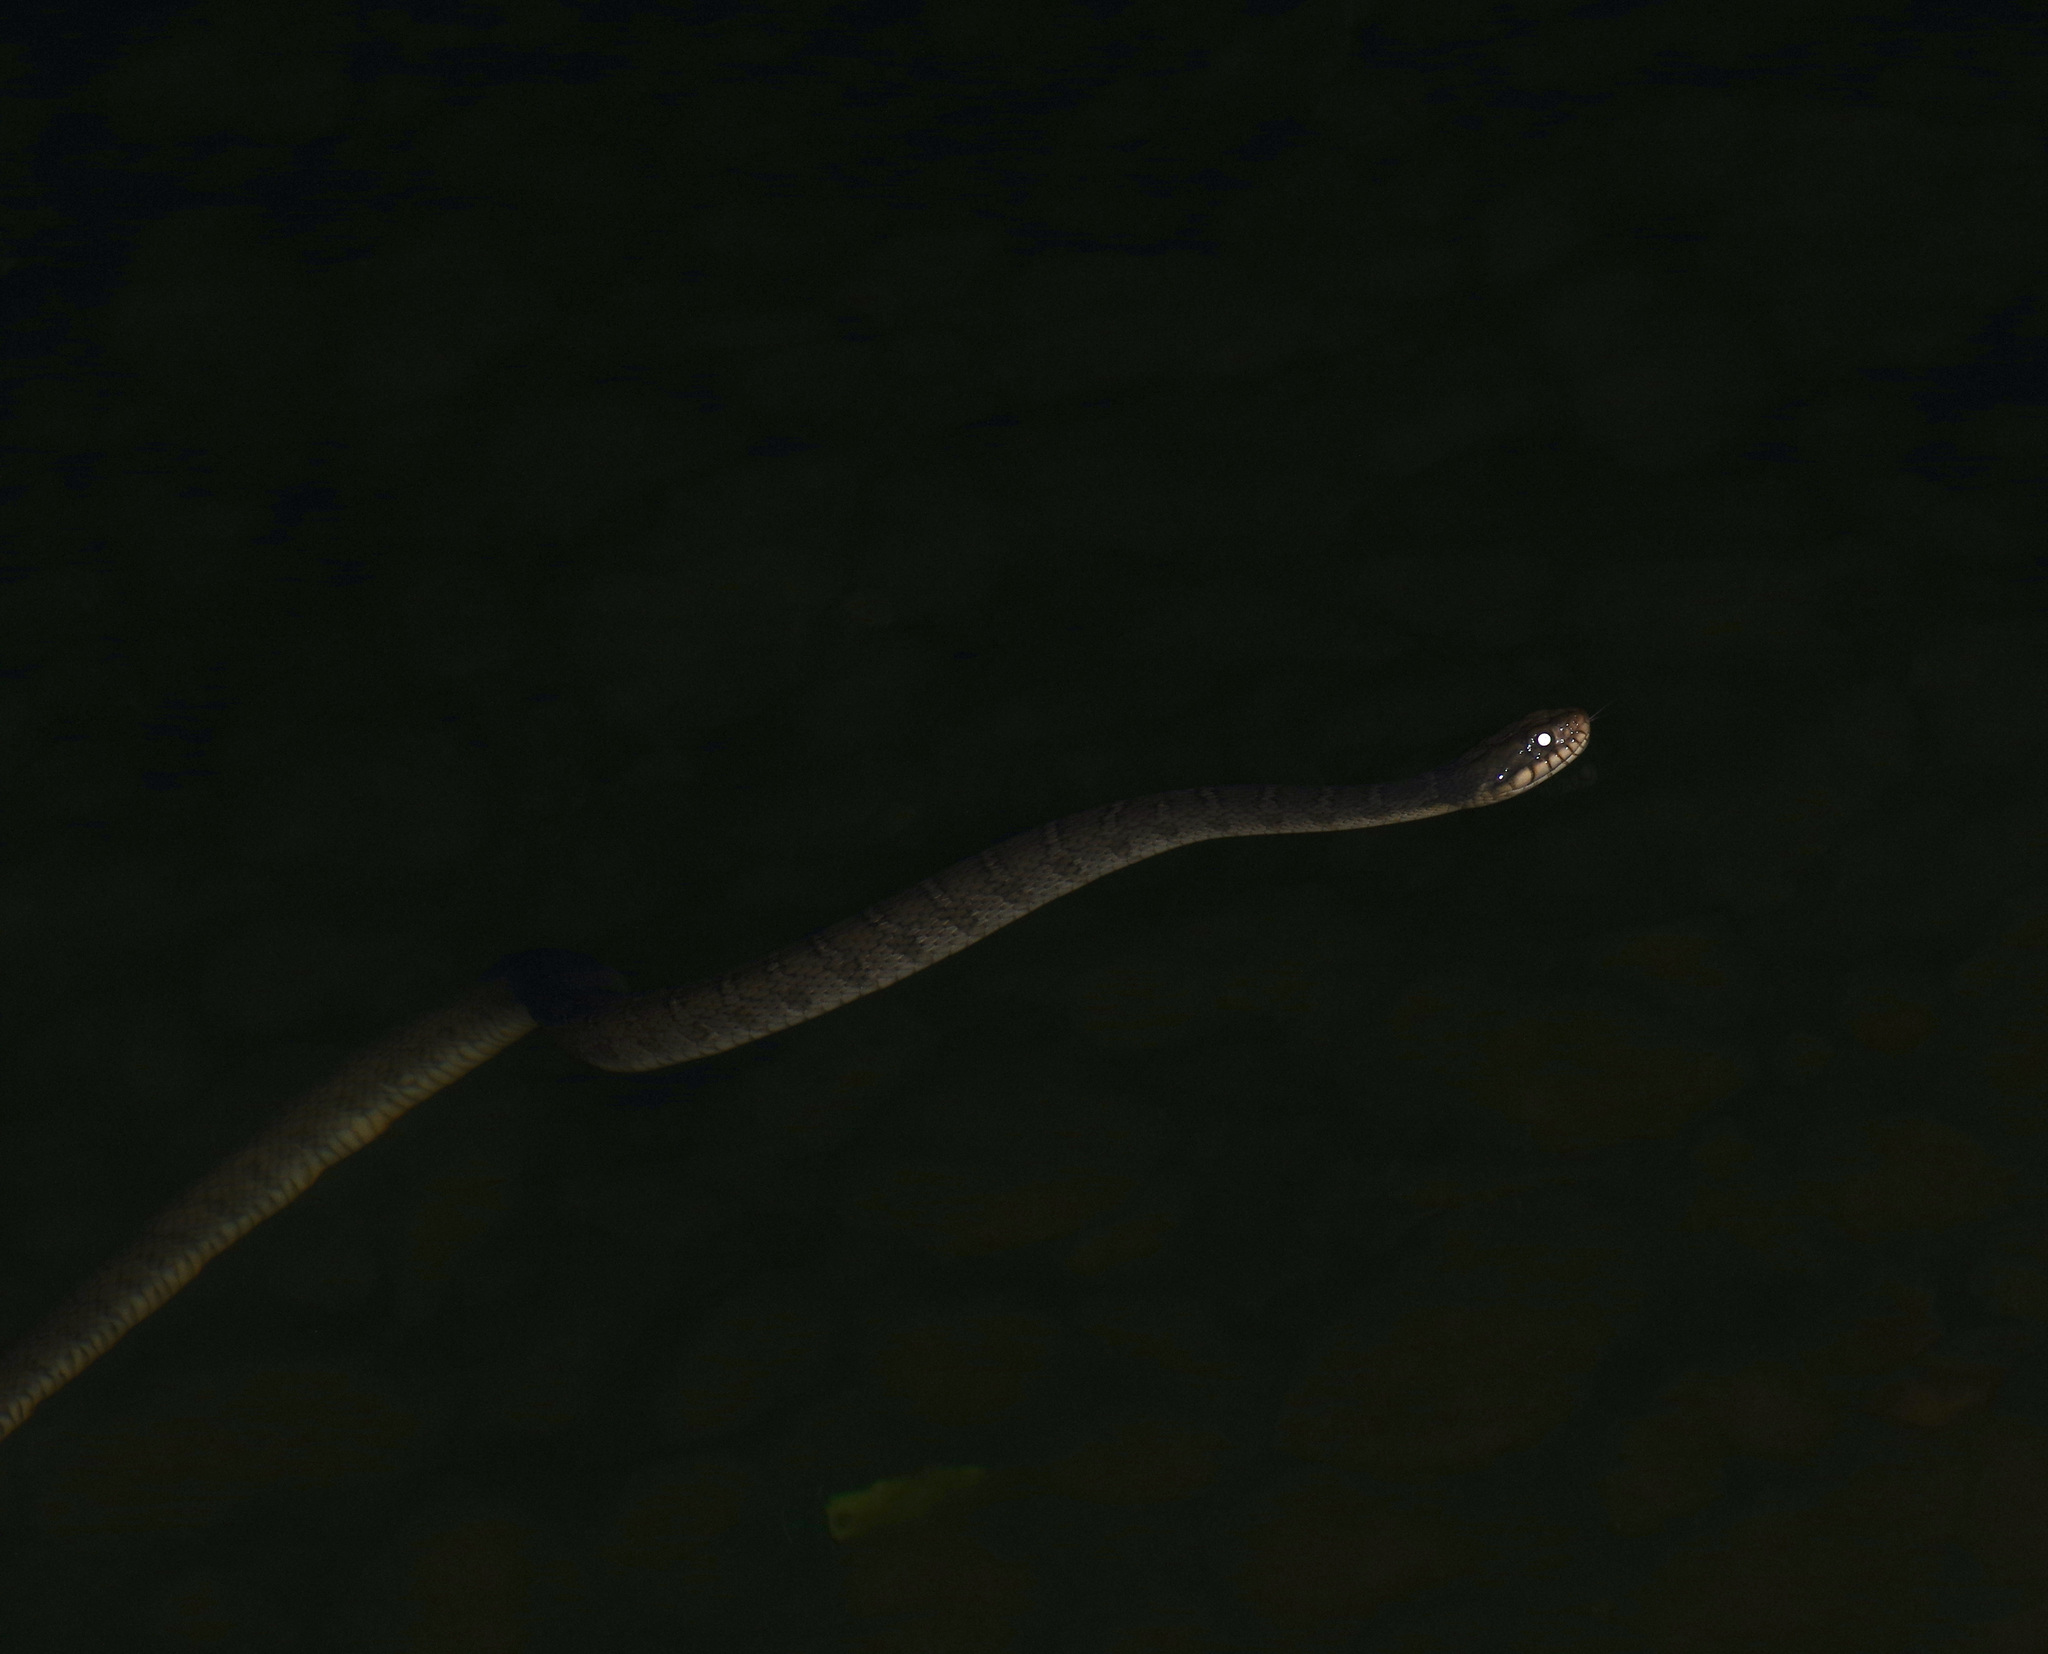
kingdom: Animalia
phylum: Chordata
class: Squamata
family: Colubridae
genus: Nerodia
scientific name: Nerodia erythrogaster
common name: Plainbelly water snake
